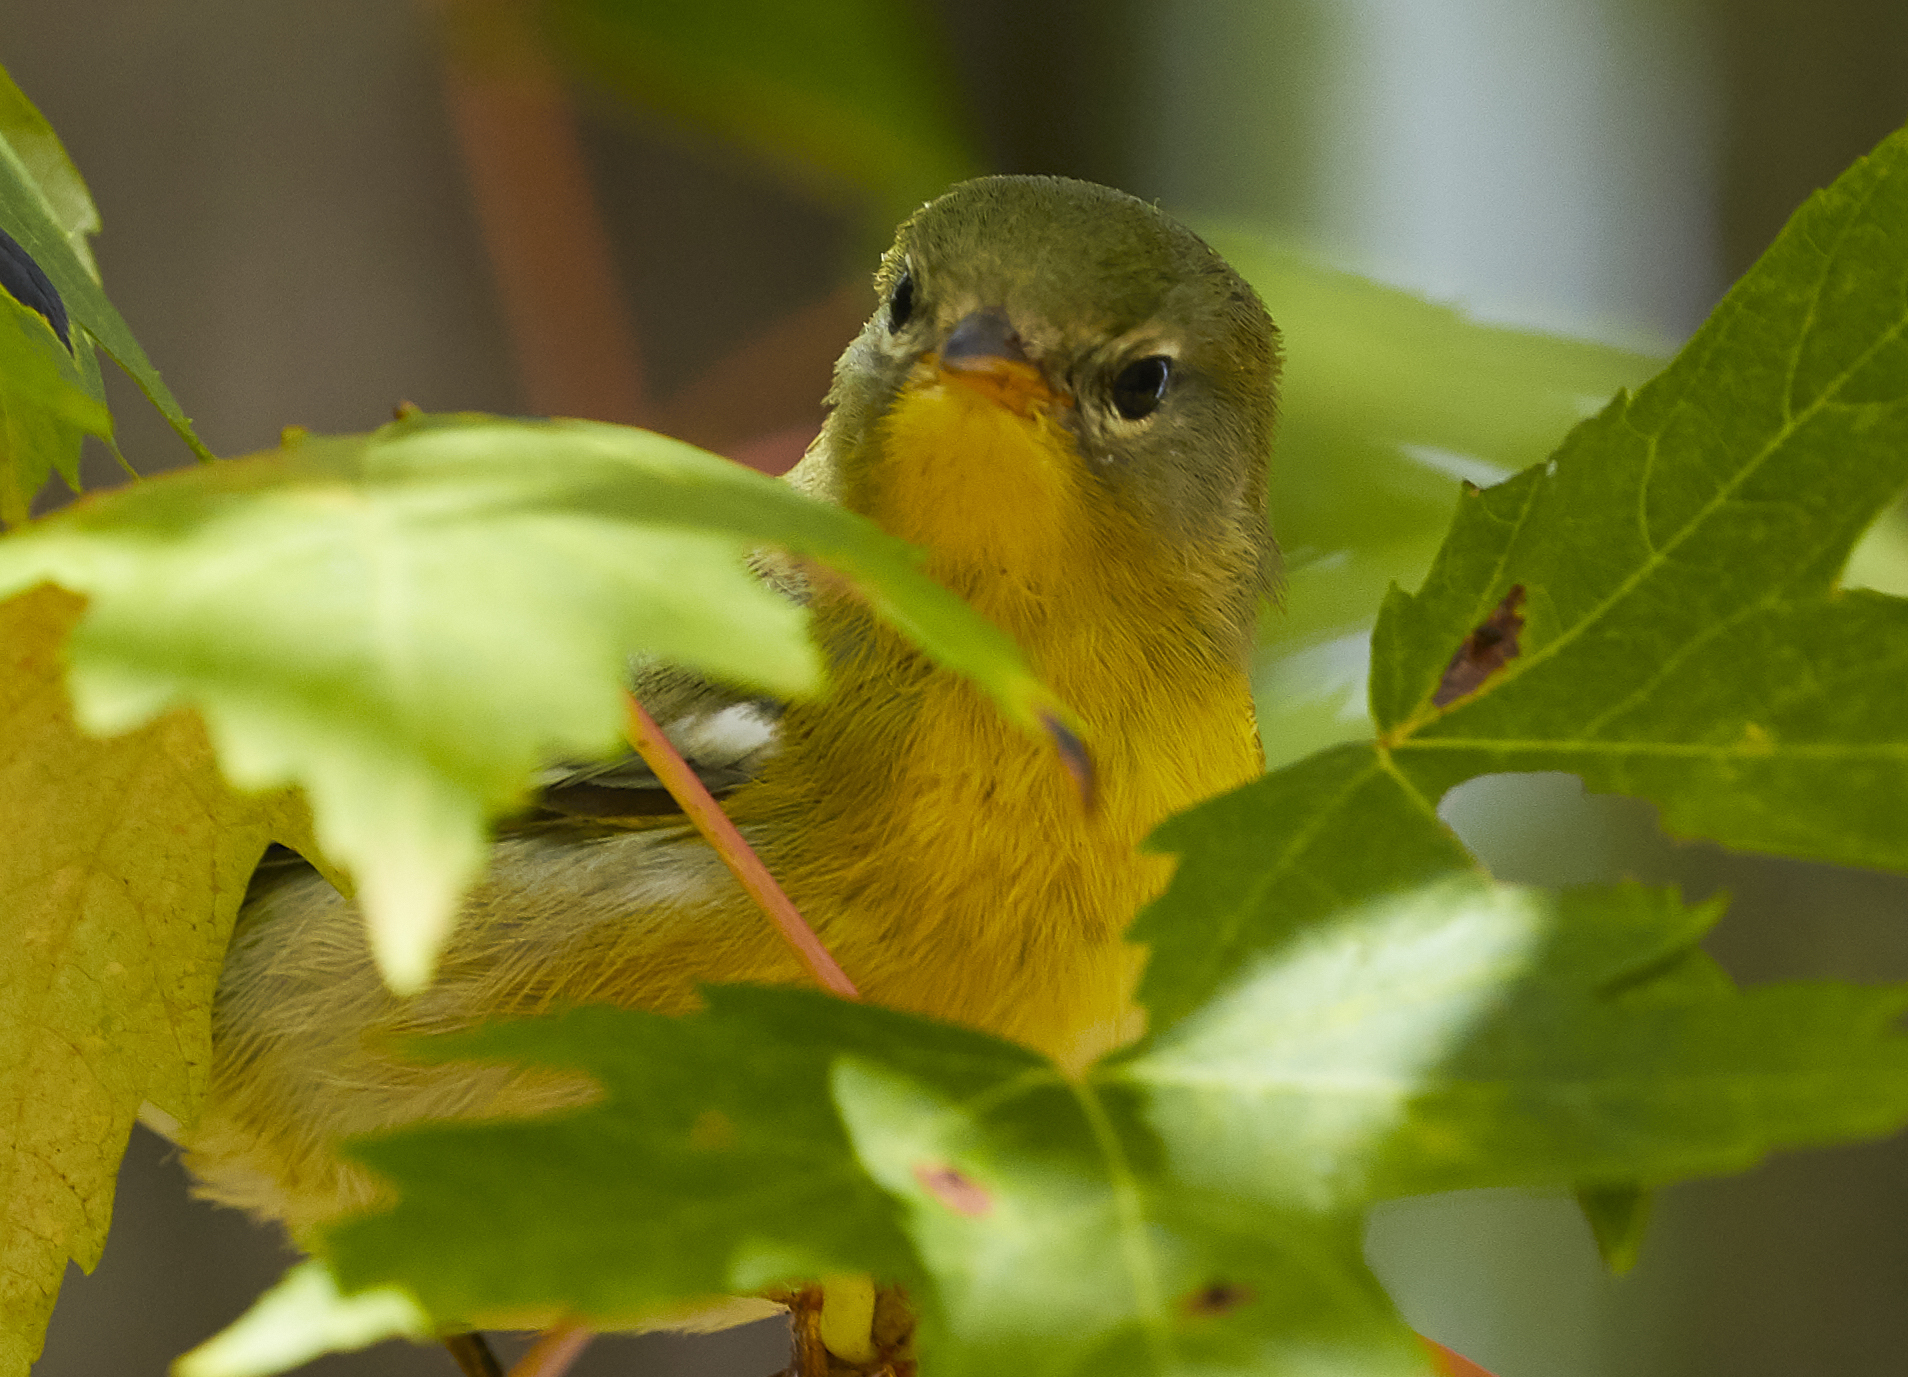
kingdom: Animalia
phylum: Chordata
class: Aves
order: Passeriformes
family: Parulidae
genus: Setophaga
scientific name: Setophaga americana
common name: Northern parula
